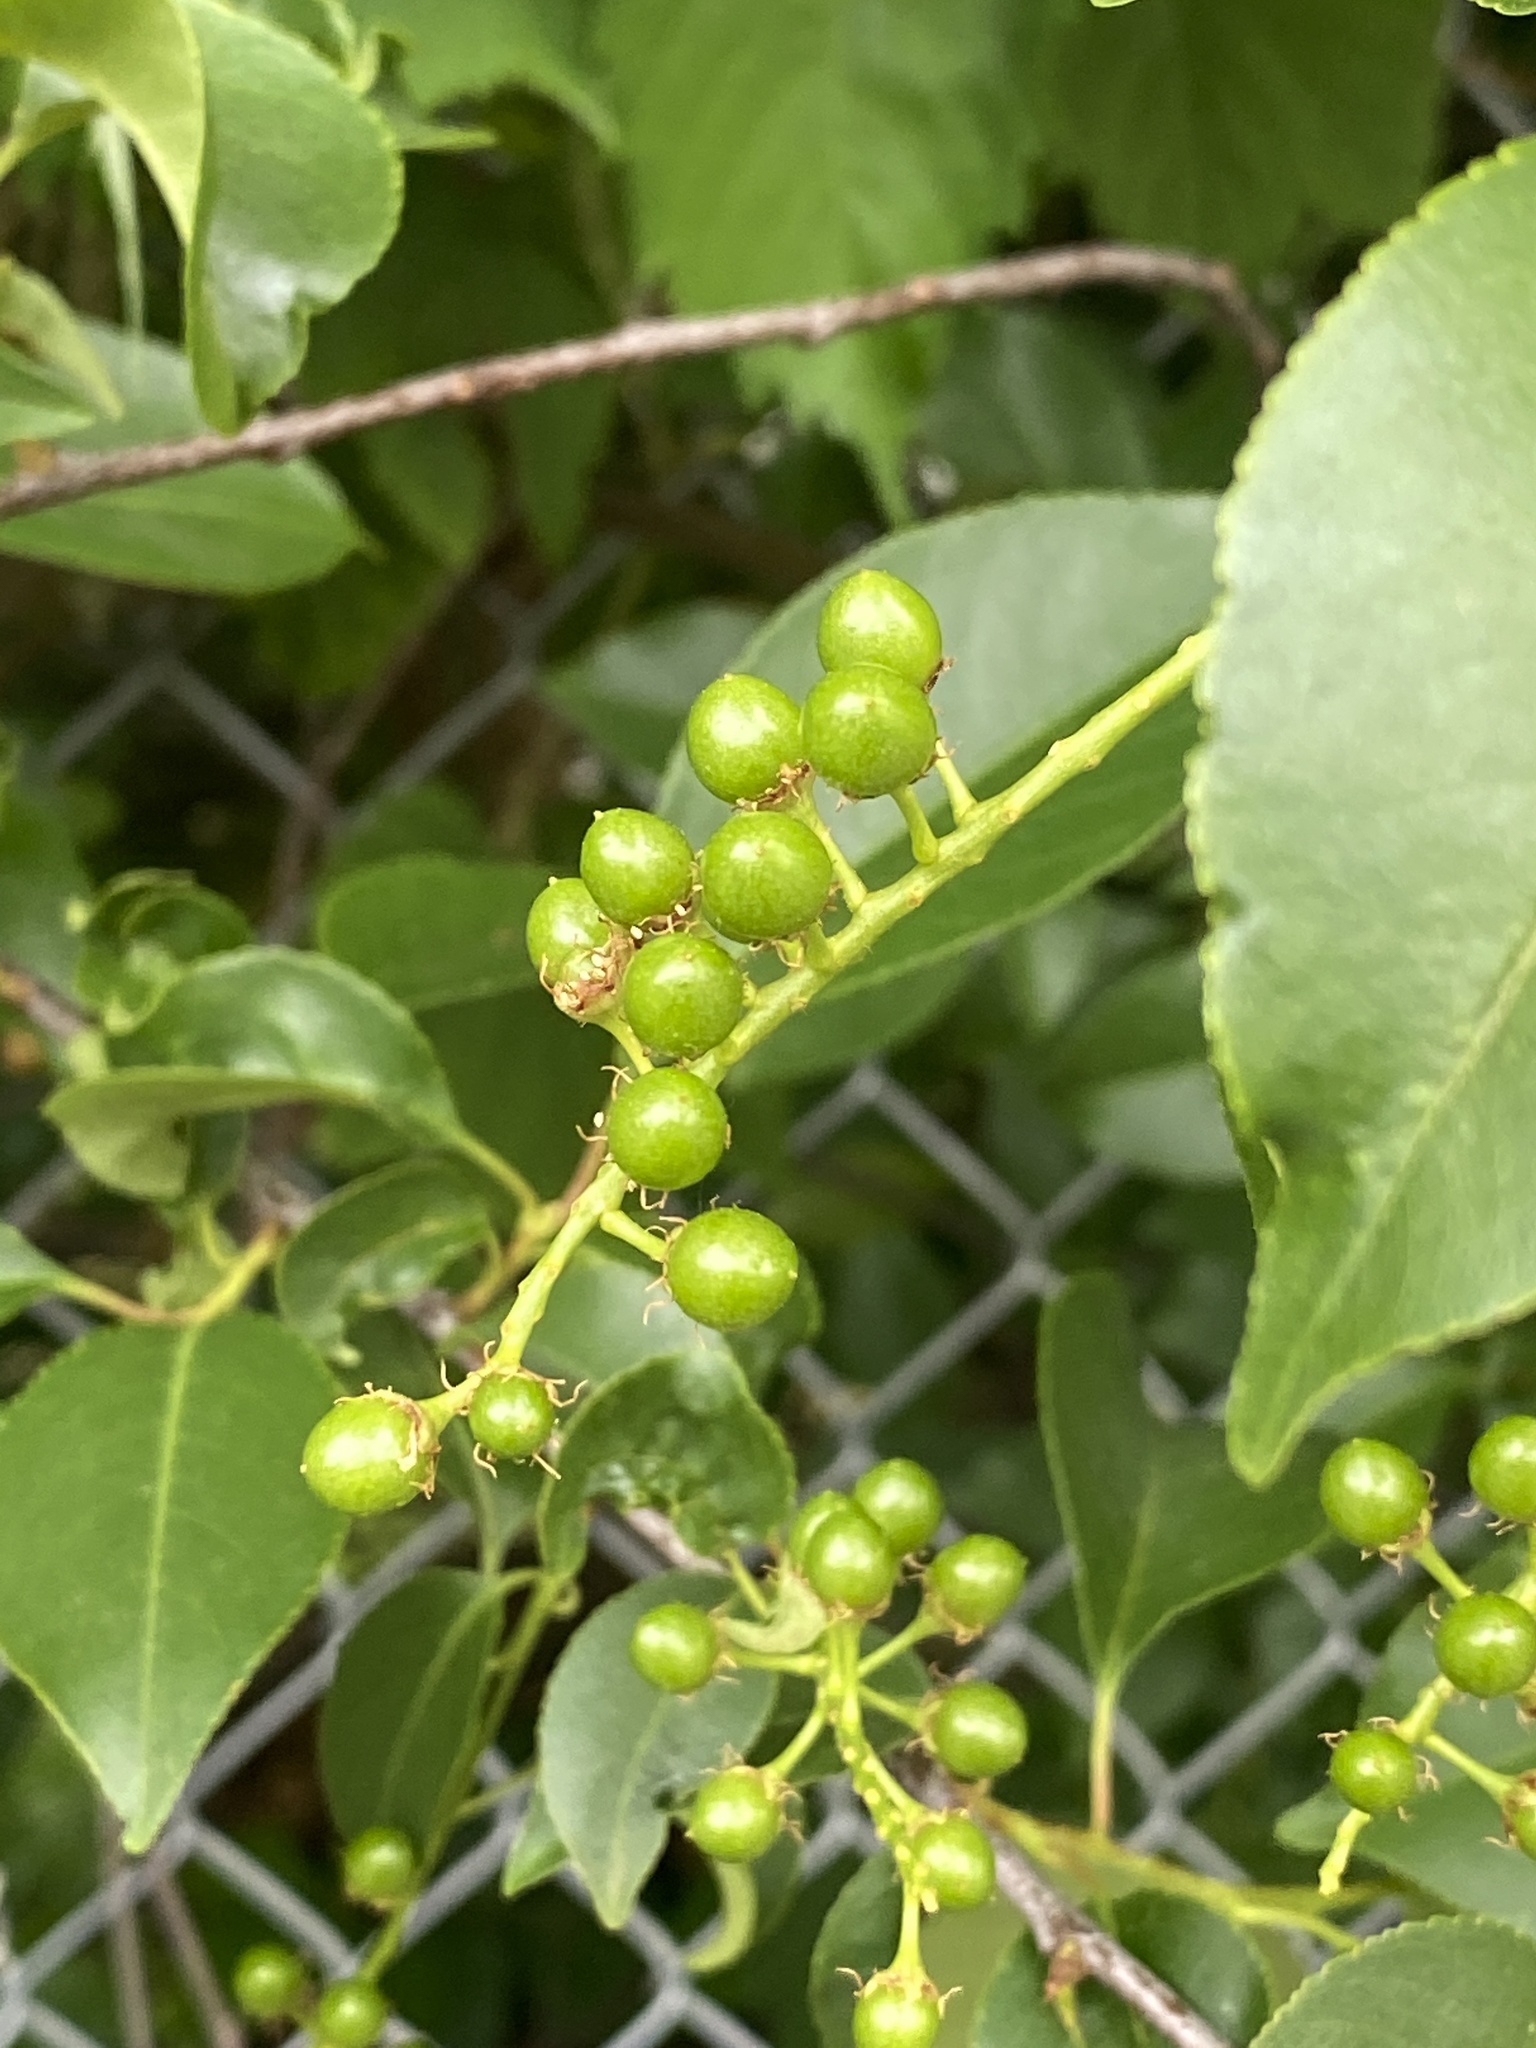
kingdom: Plantae
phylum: Tracheophyta
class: Magnoliopsida
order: Rosales
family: Rosaceae
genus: Prunus
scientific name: Prunus serotina
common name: Black cherry
